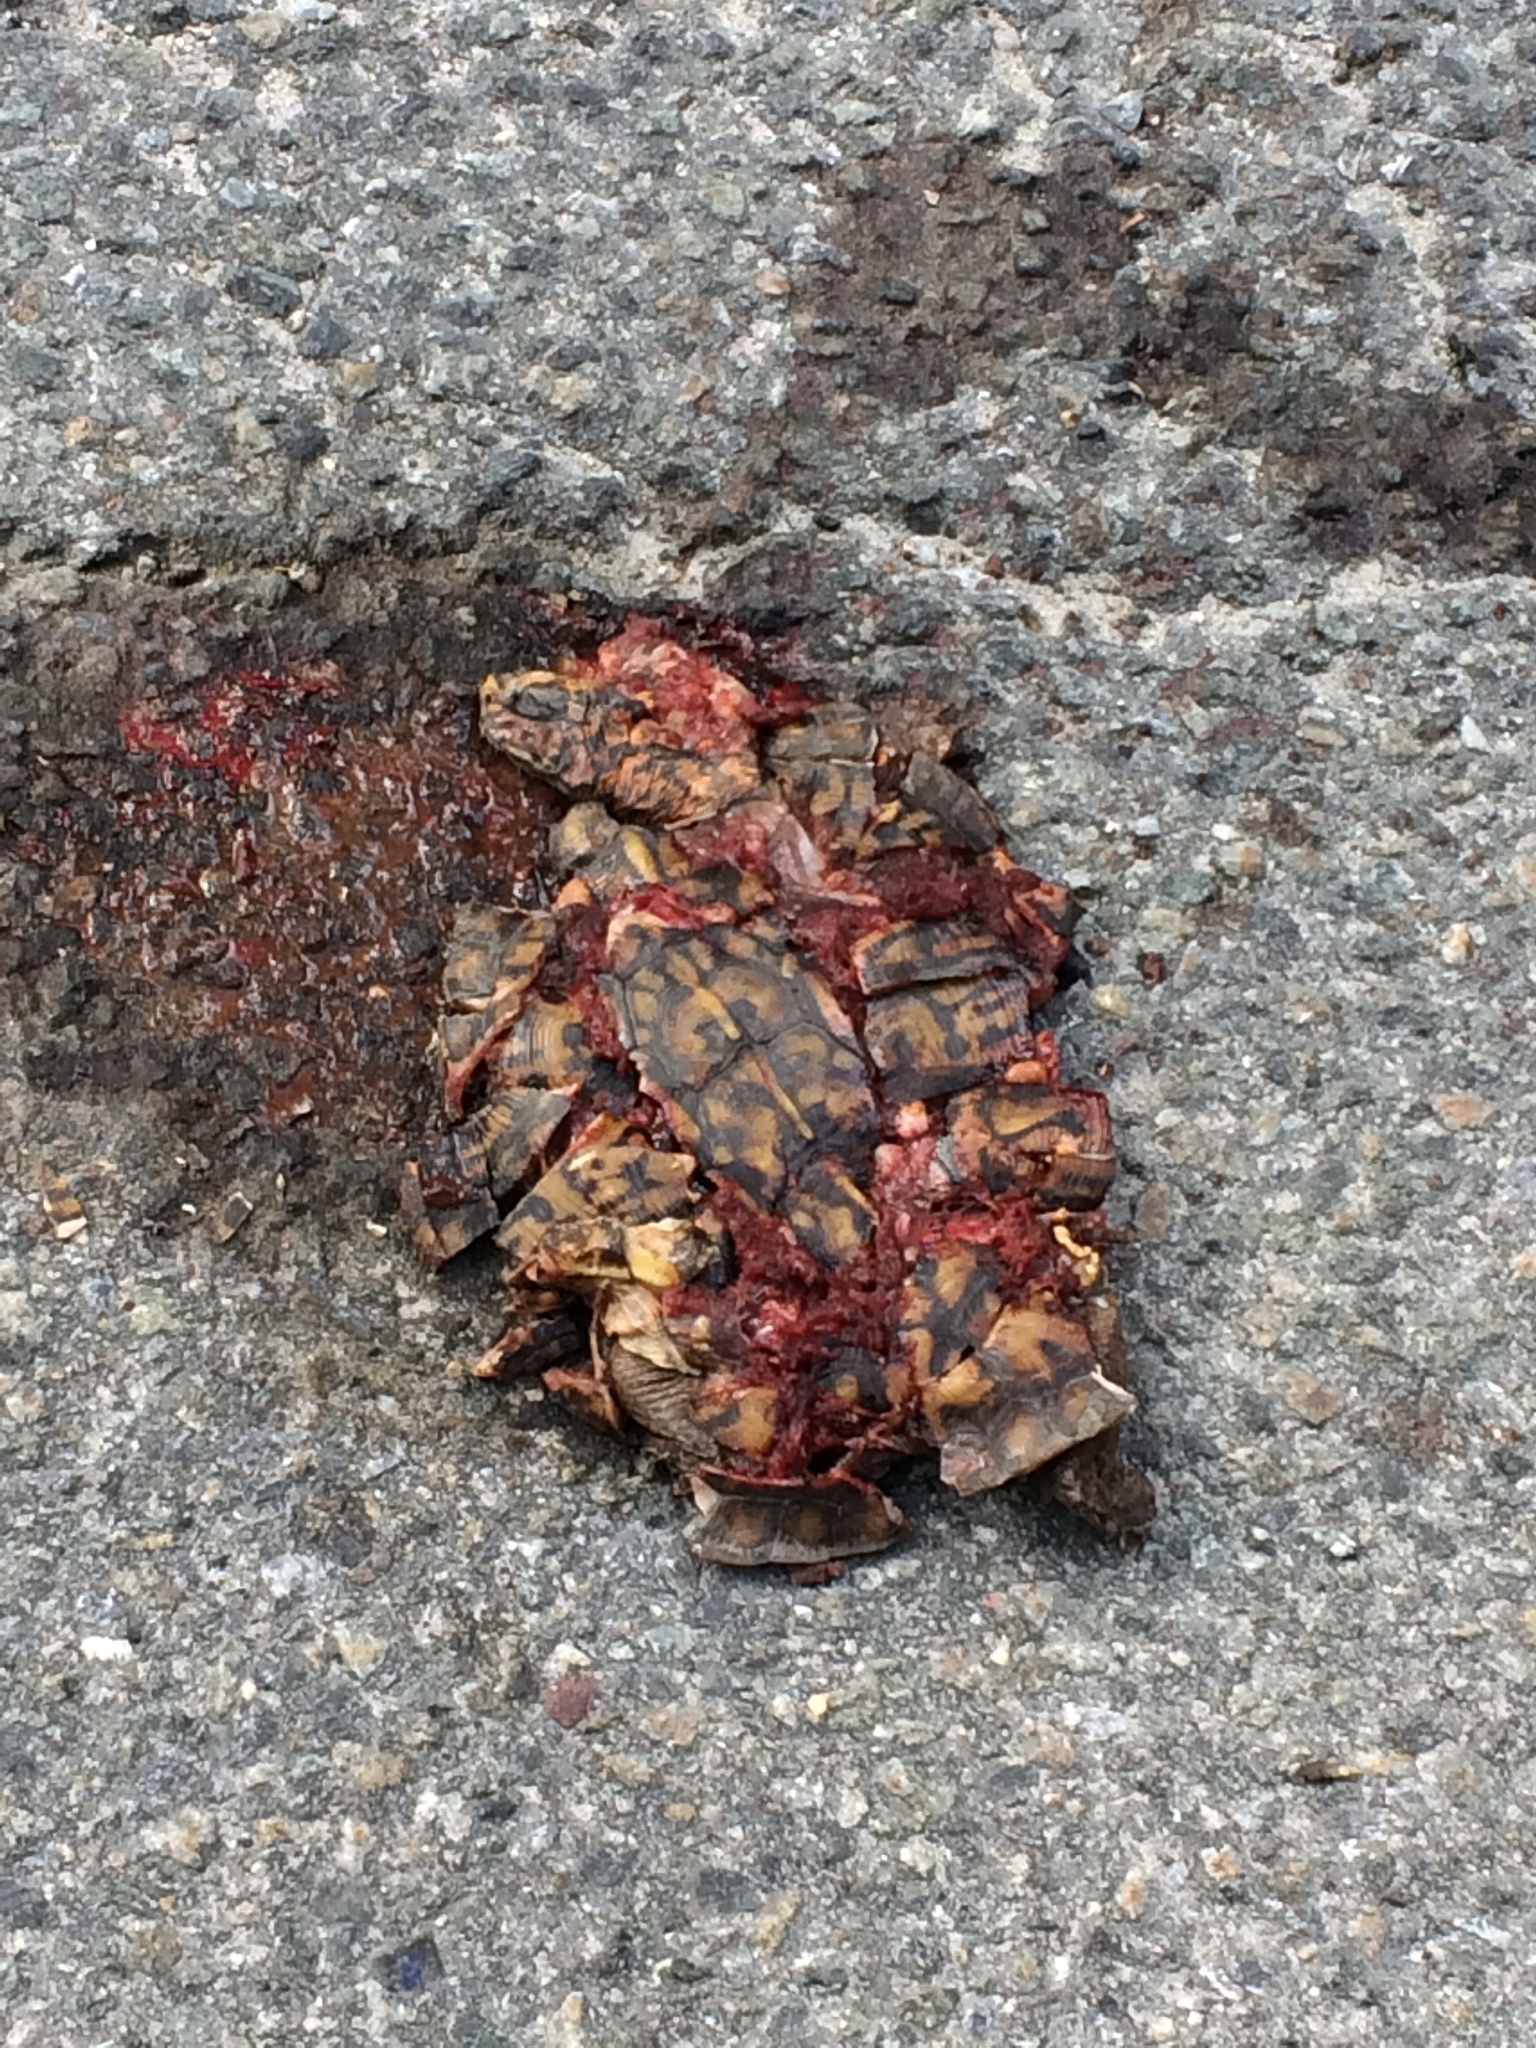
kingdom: Animalia
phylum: Chordata
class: Testudines
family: Emydidae
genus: Terrapene
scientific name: Terrapene carolina
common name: Common box turtle
